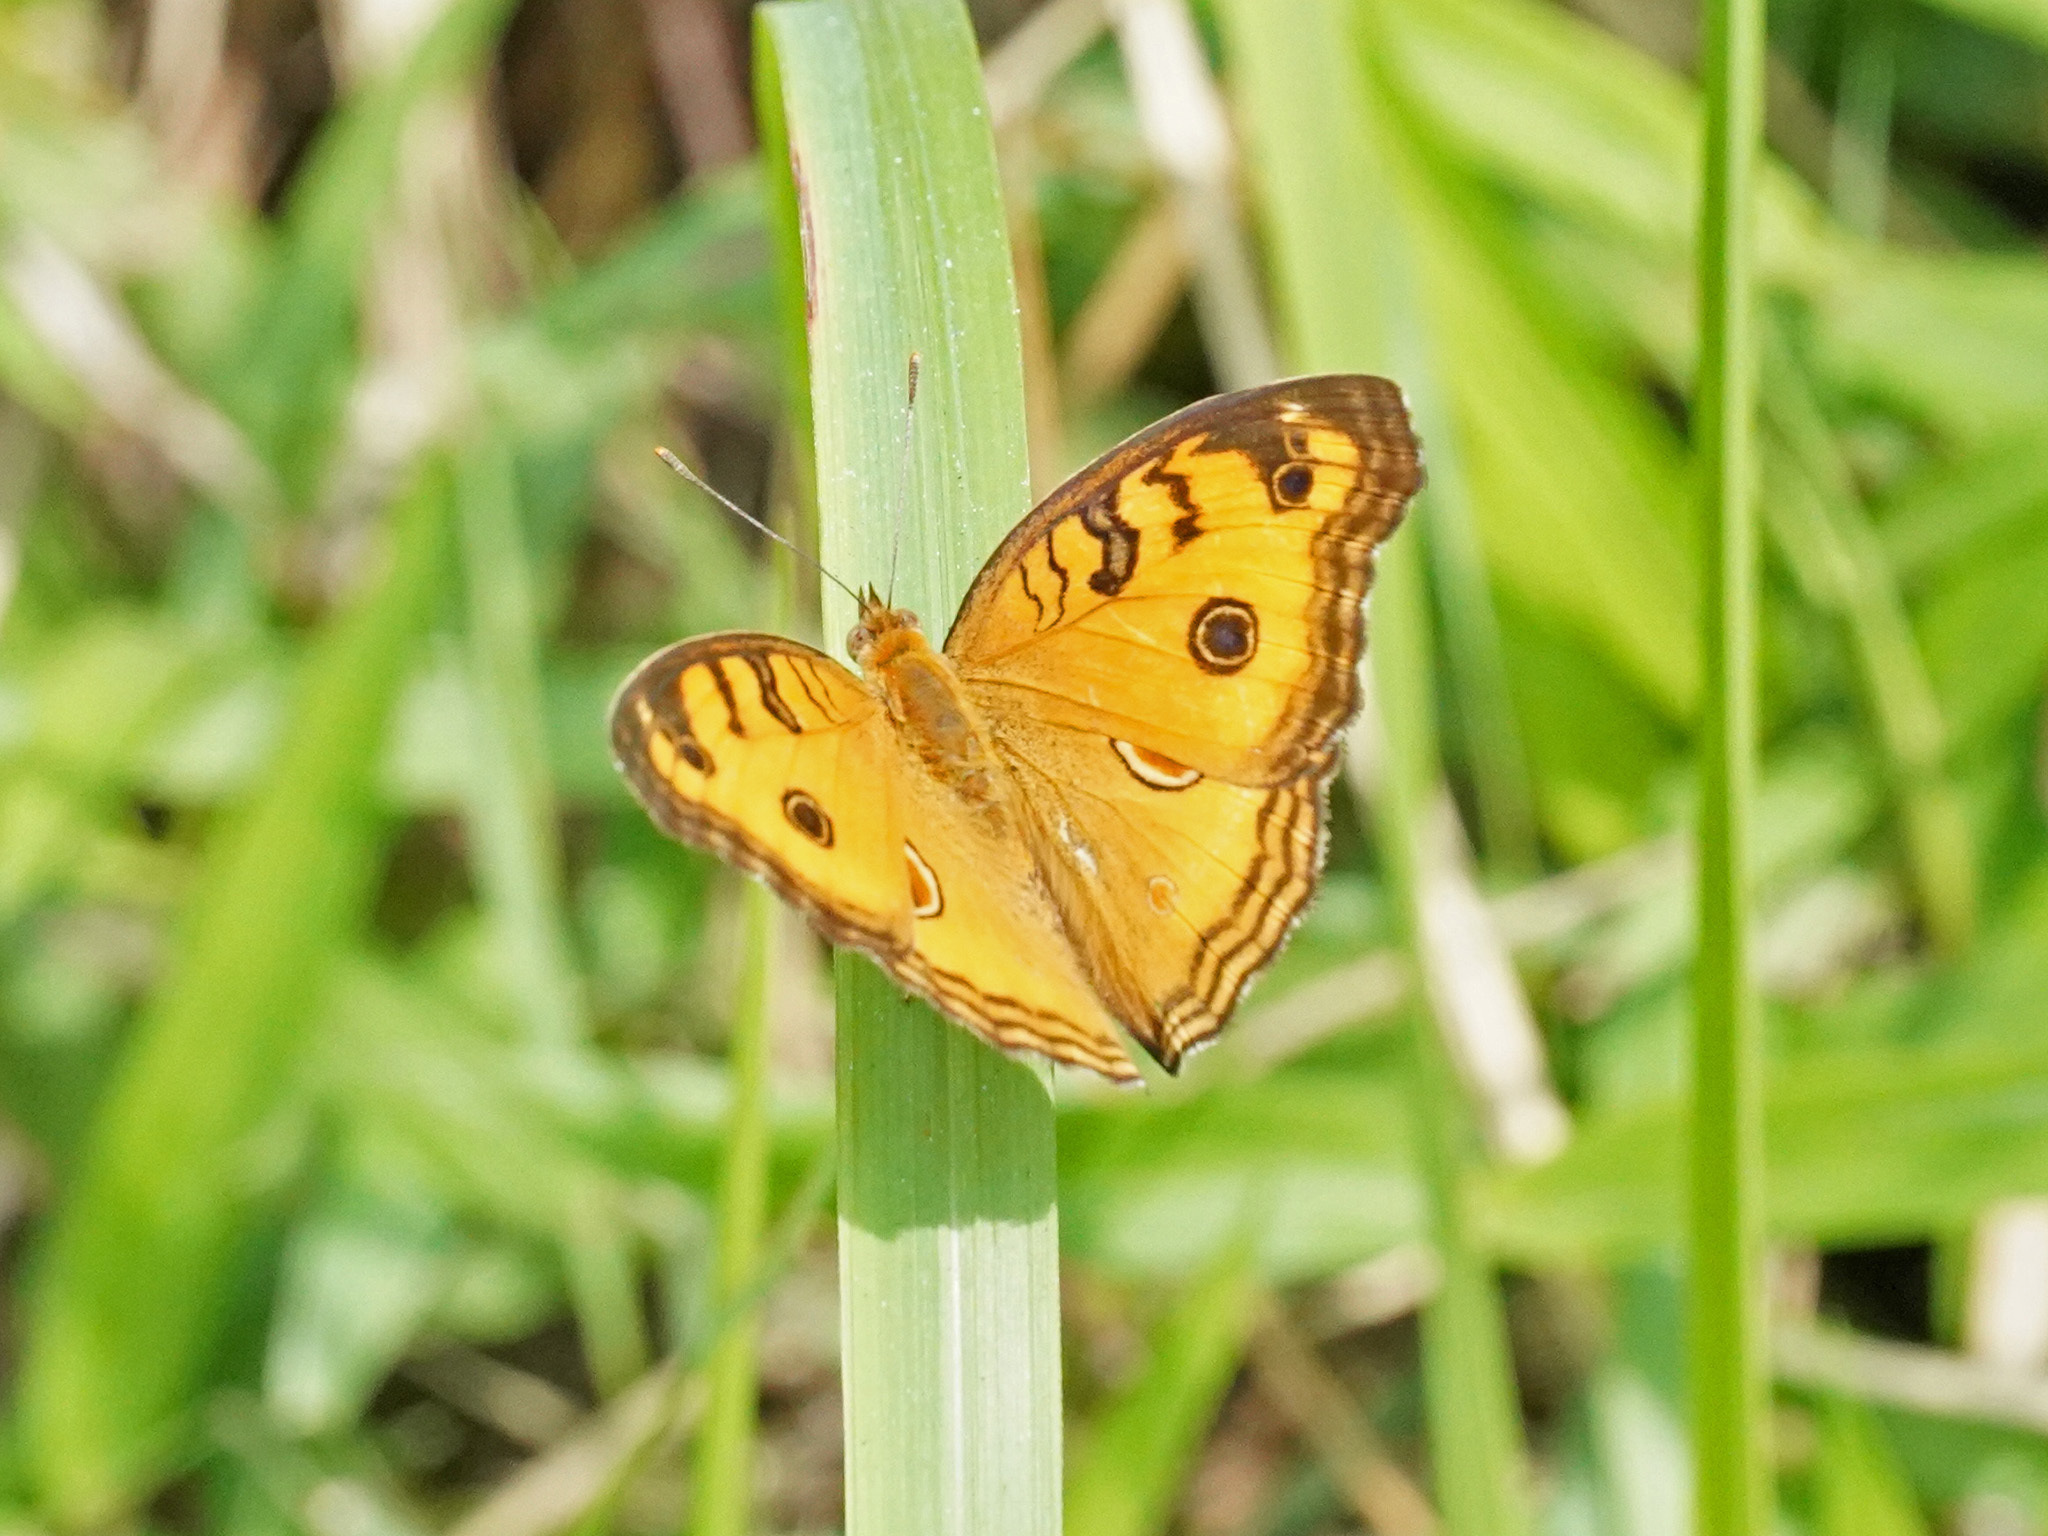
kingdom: Animalia
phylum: Arthropoda
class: Insecta
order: Lepidoptera
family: Nymphalidae
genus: Junonia
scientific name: Junonia almana
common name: Peacock pansy
